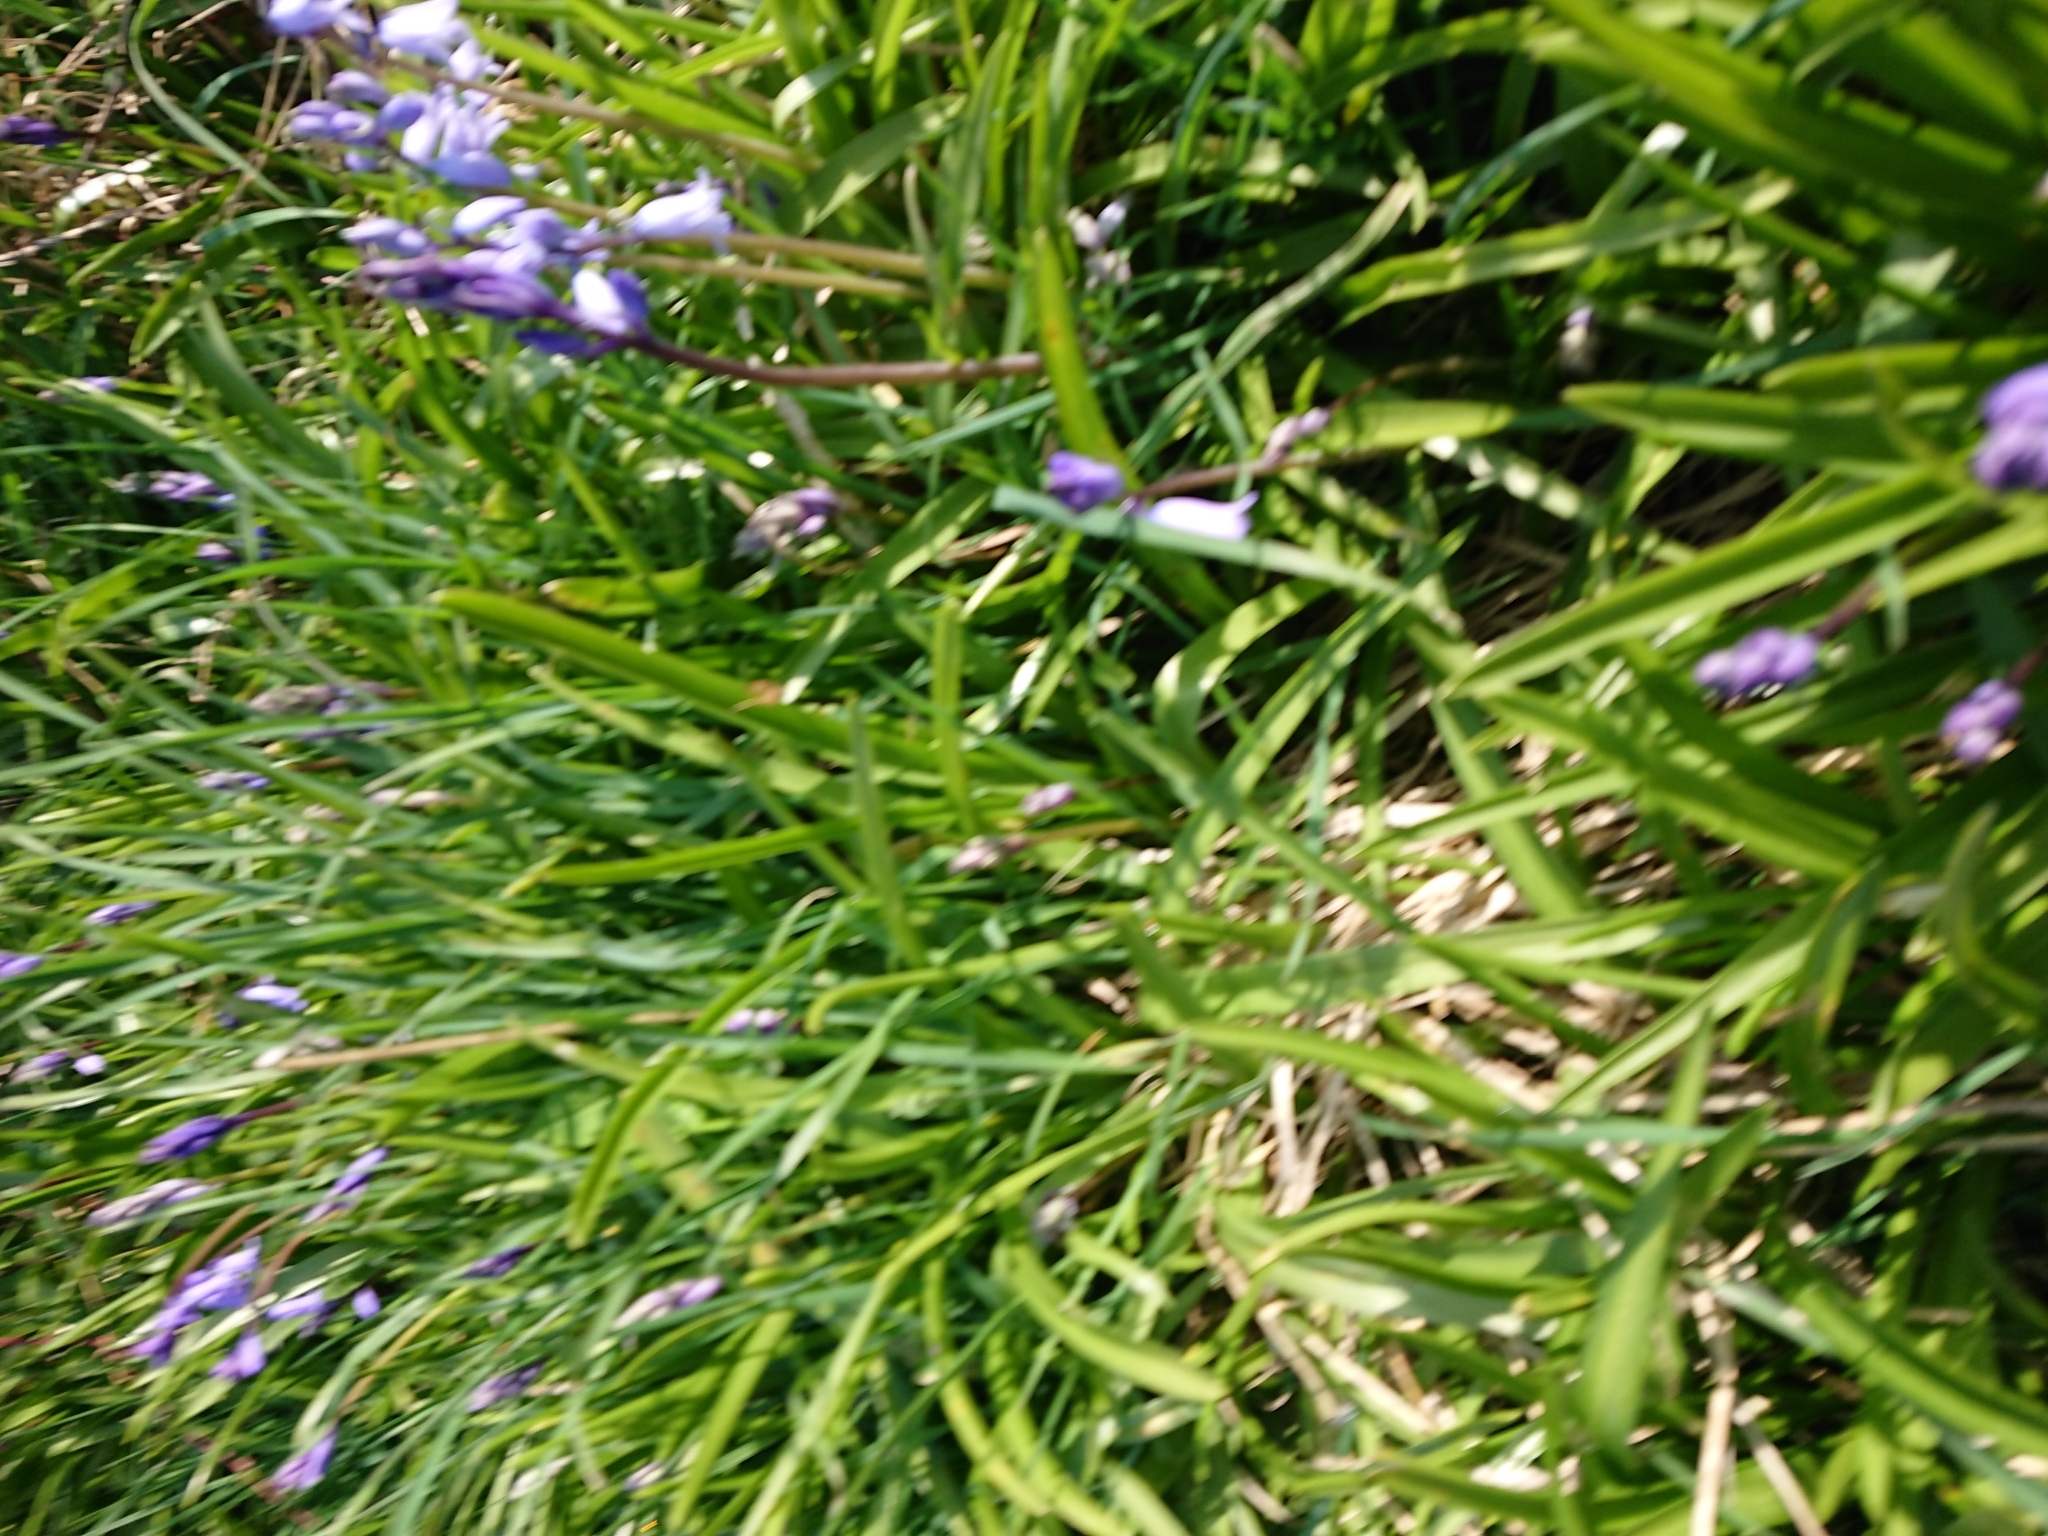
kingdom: Plantae
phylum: Tracheophyta
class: Liliopsida
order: Asparagales
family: Asparagaceae
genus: Hyacinthoides
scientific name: Hyacinthoides hispanica
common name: Spanish bluebell
